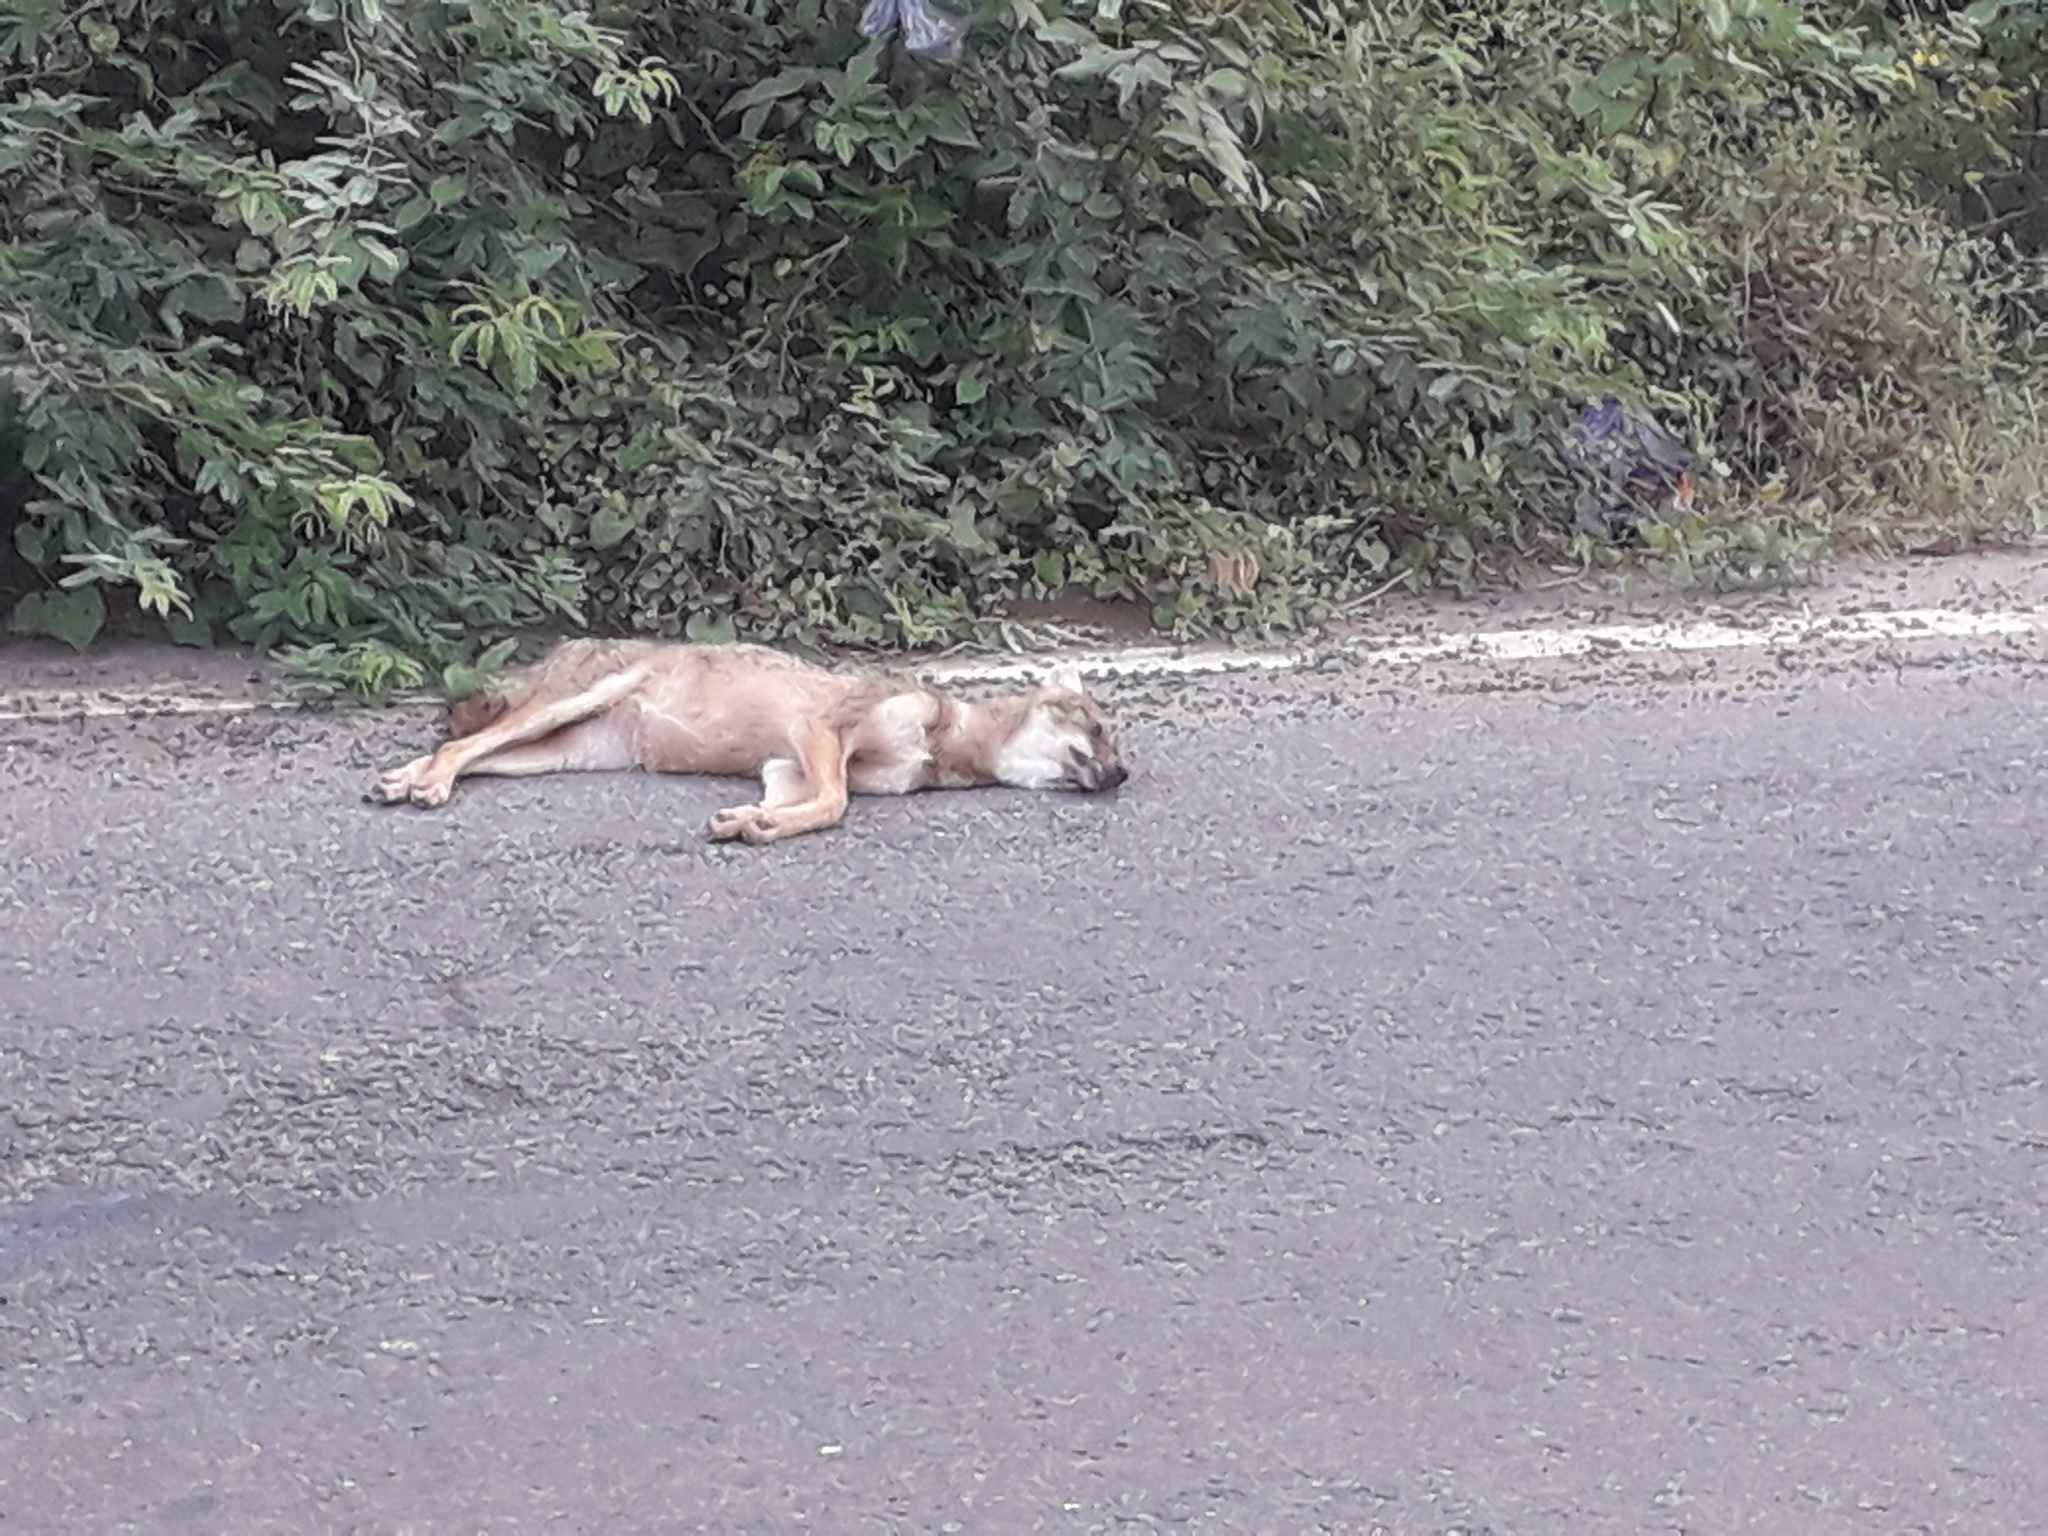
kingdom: Animalia
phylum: Chordata
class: Mammalia
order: Carnivora
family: Canidae
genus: Canis
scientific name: Canis aureus
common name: Golden jackal
